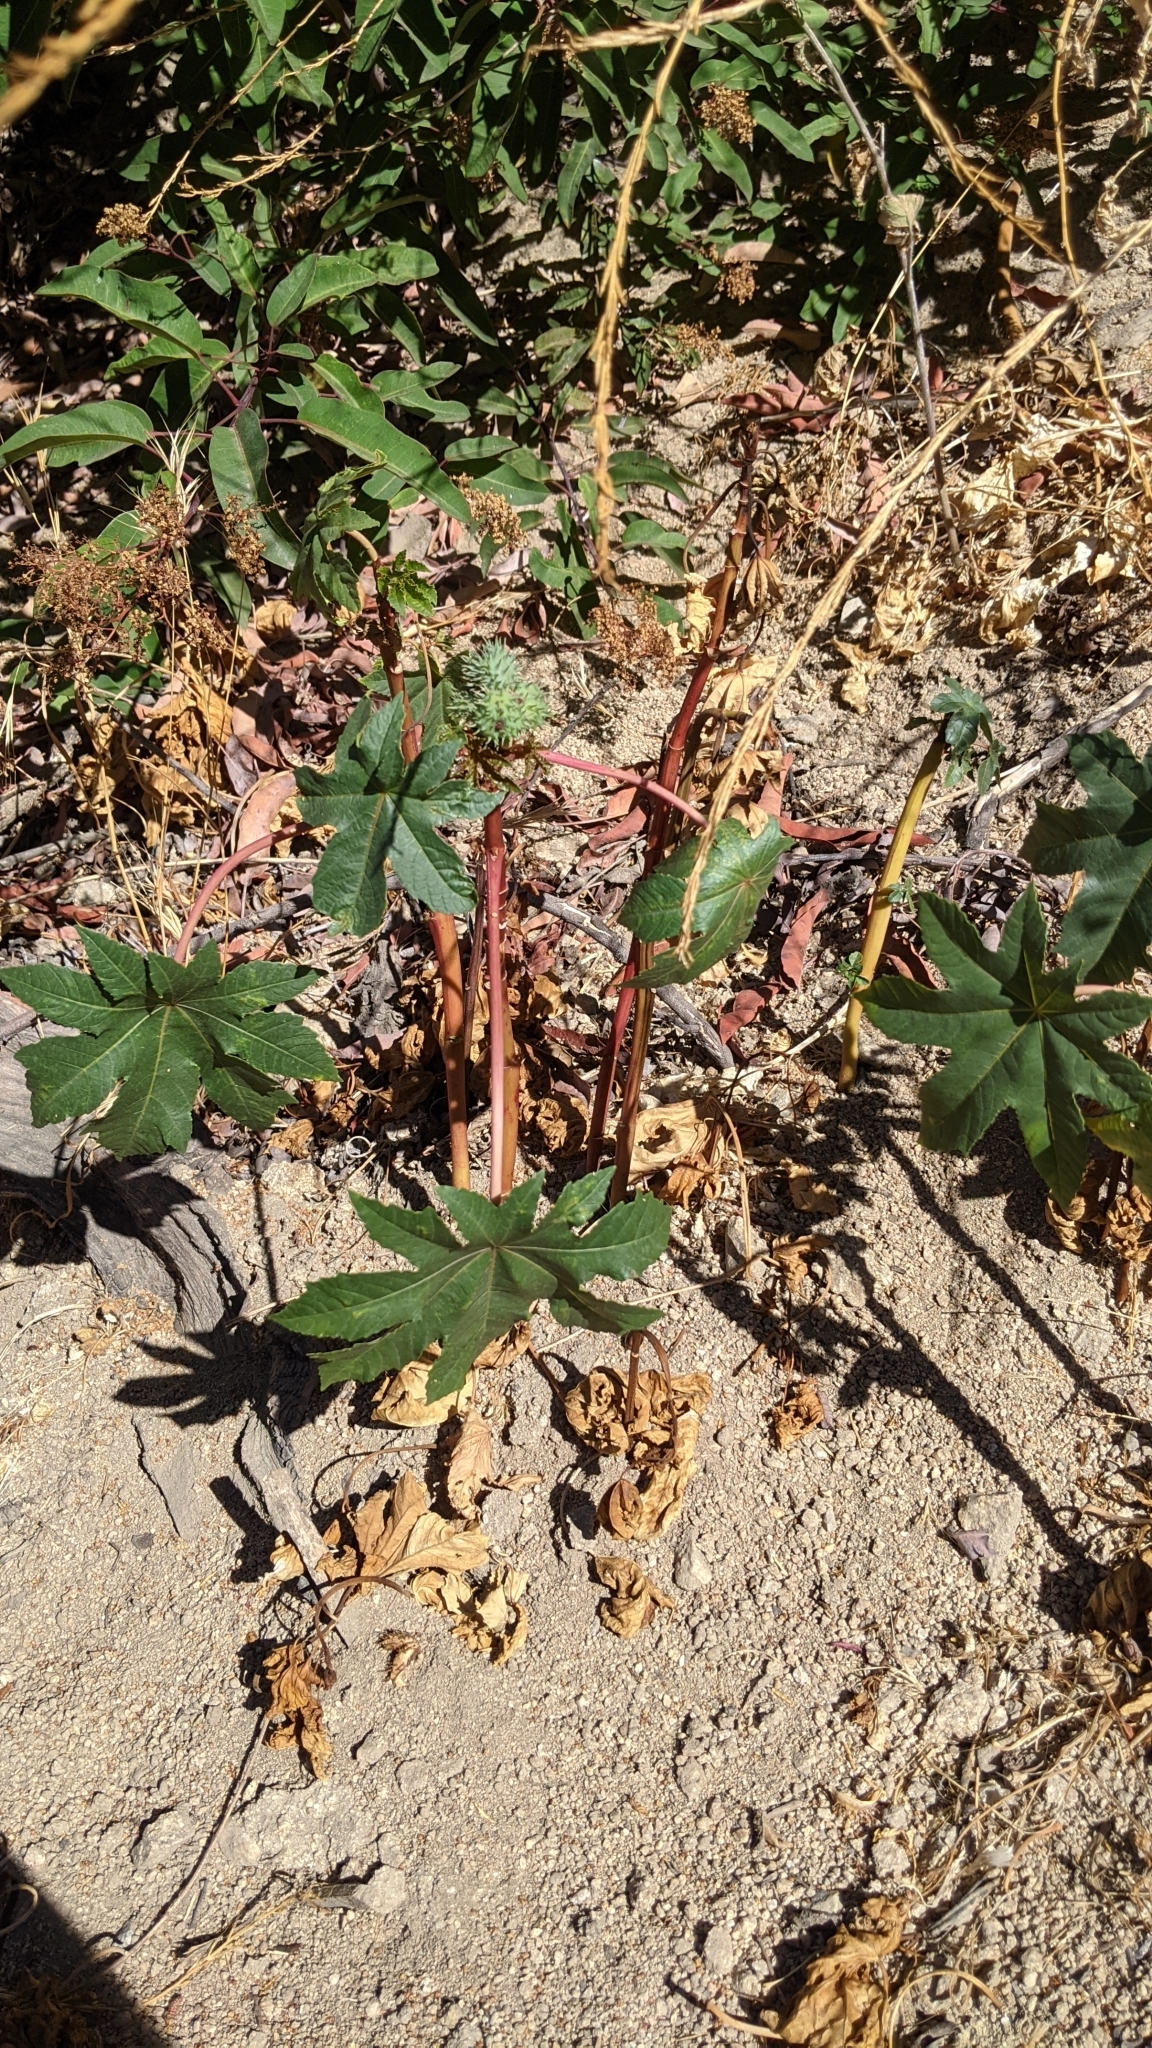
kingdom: Plantae
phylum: Tracheophyta
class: Magnoliopsida
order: Malpighiales
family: Euphorbiaceae
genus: Ricinus
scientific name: Ricinus communis
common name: Castor-oil-plant
